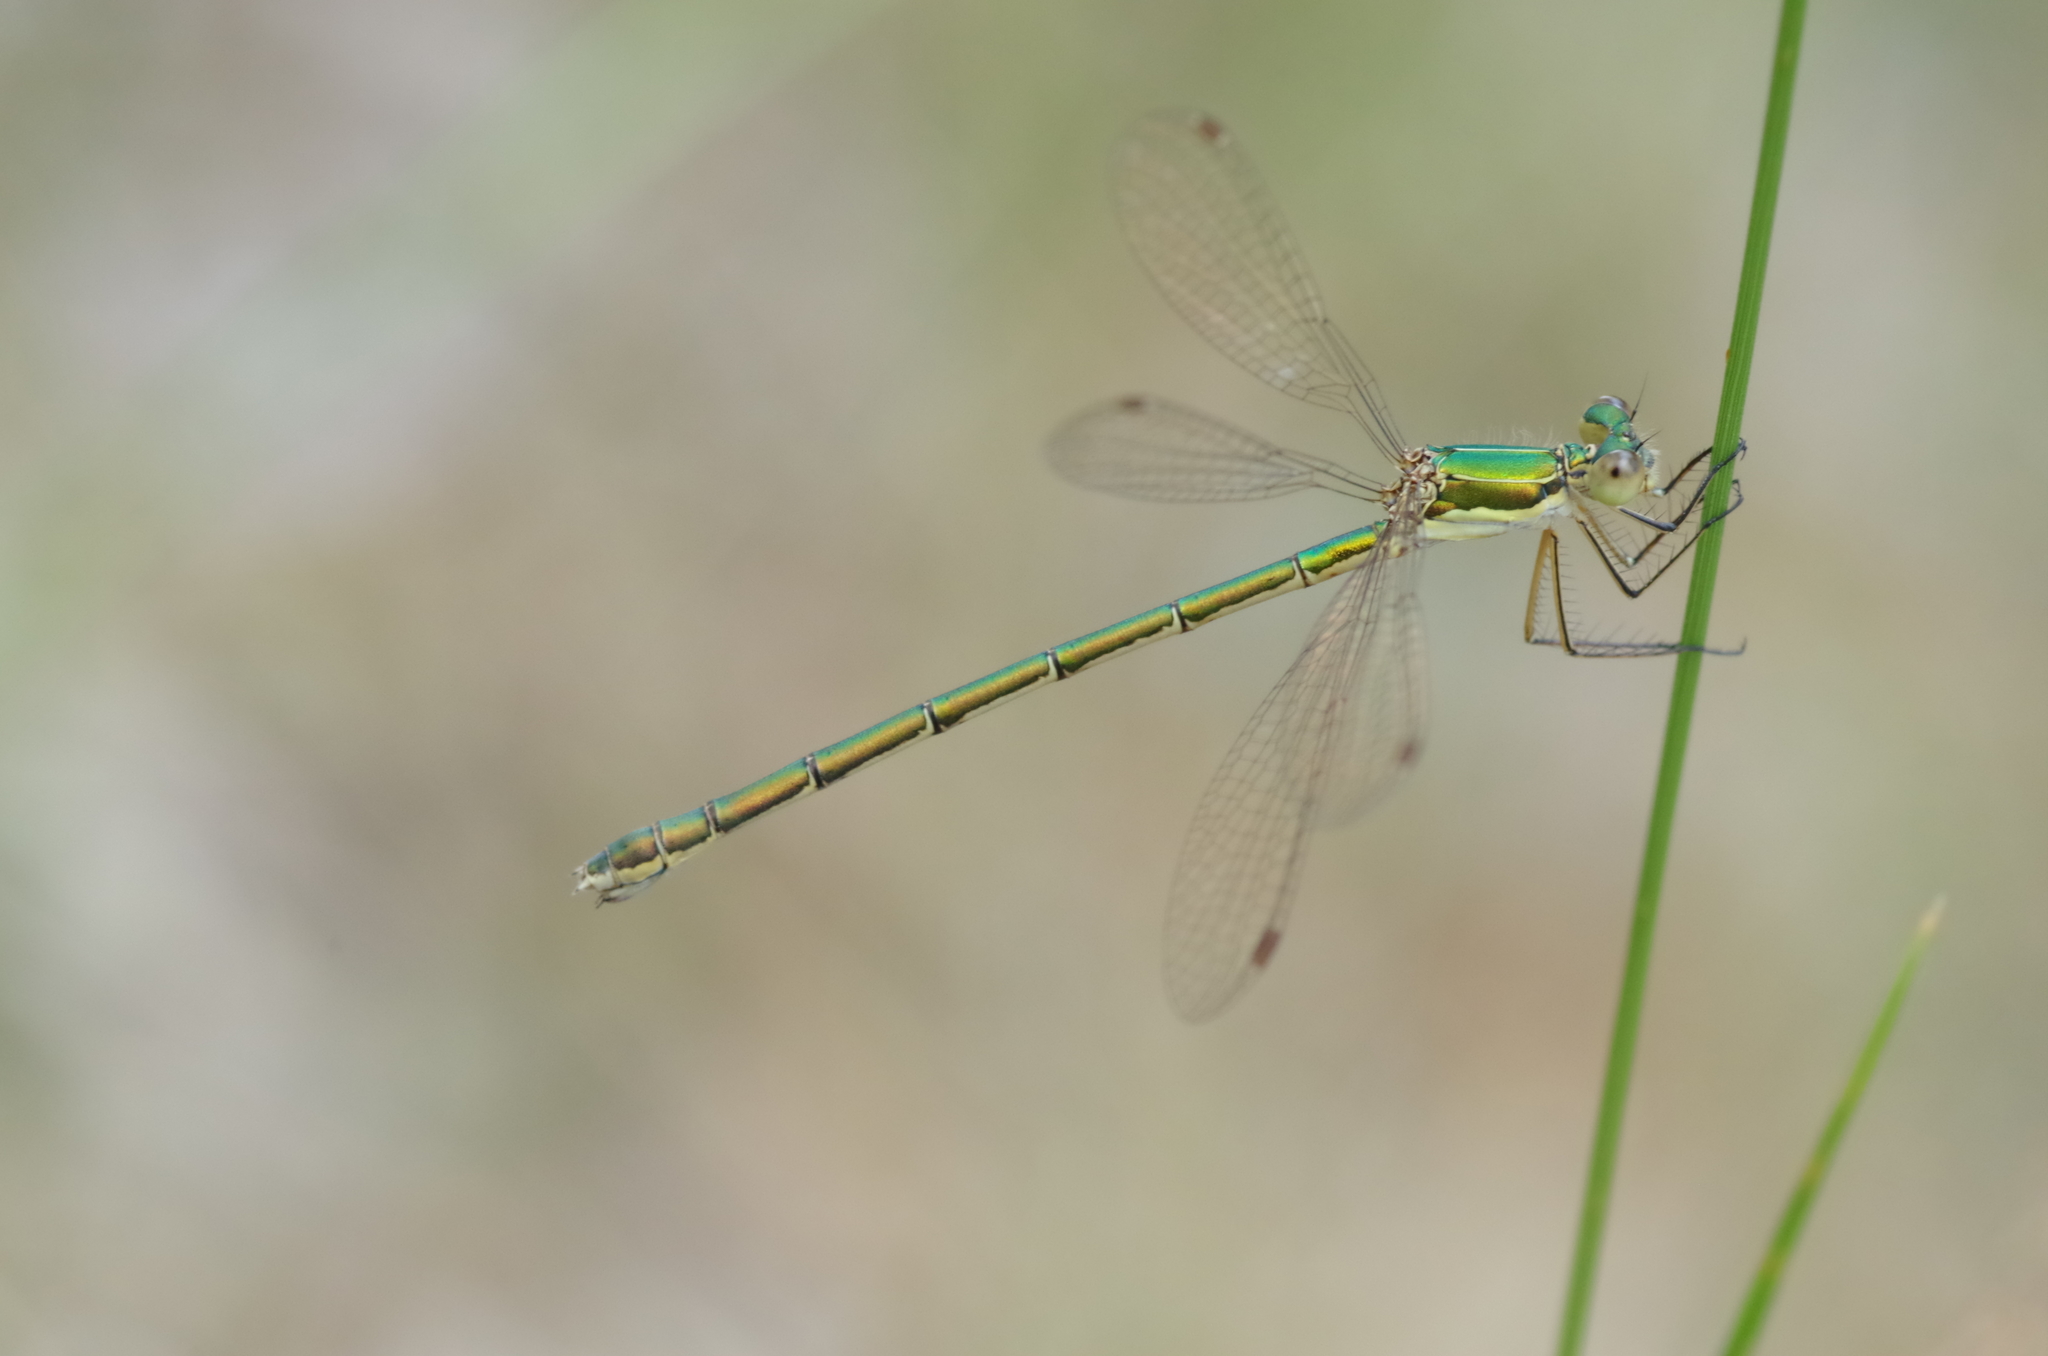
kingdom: Animalia
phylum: Arthropoda
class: Insecta
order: Odonata
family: Lestidae
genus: Lestes
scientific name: Lestes virens
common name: Small emerald spreadwing
